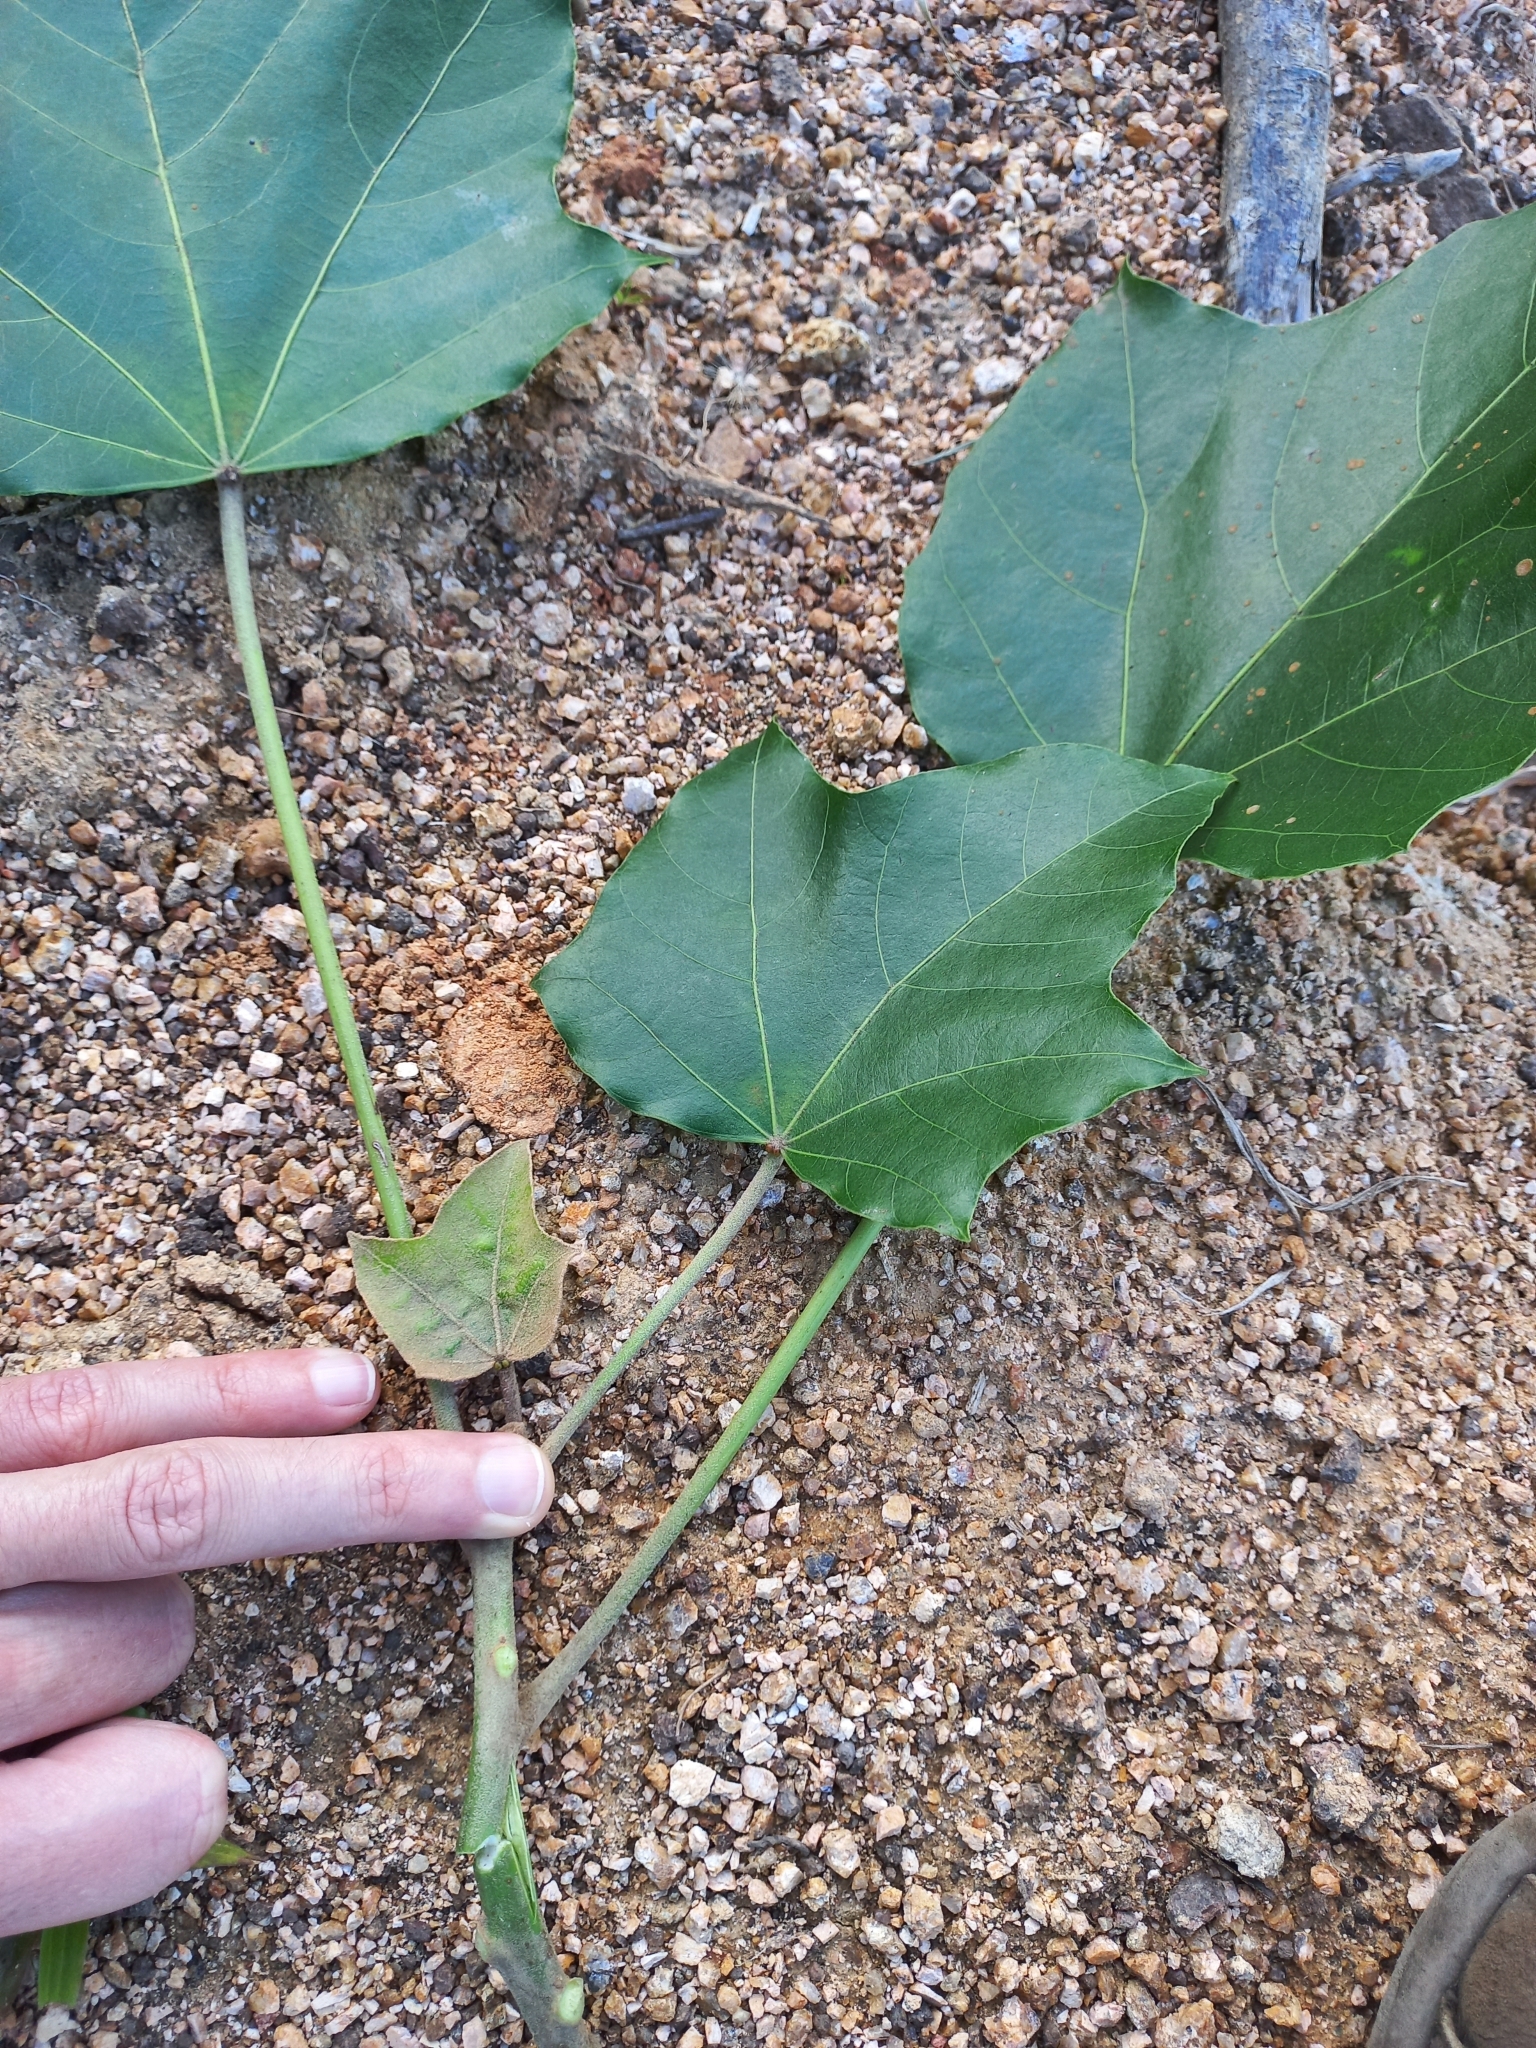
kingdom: Plantae
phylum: Tracheophyta
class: Magnoliopsida
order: Malpighiales
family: Euphorbiaceae
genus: Aleurites
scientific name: Aleurites moluccanus
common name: Candlenut tree
